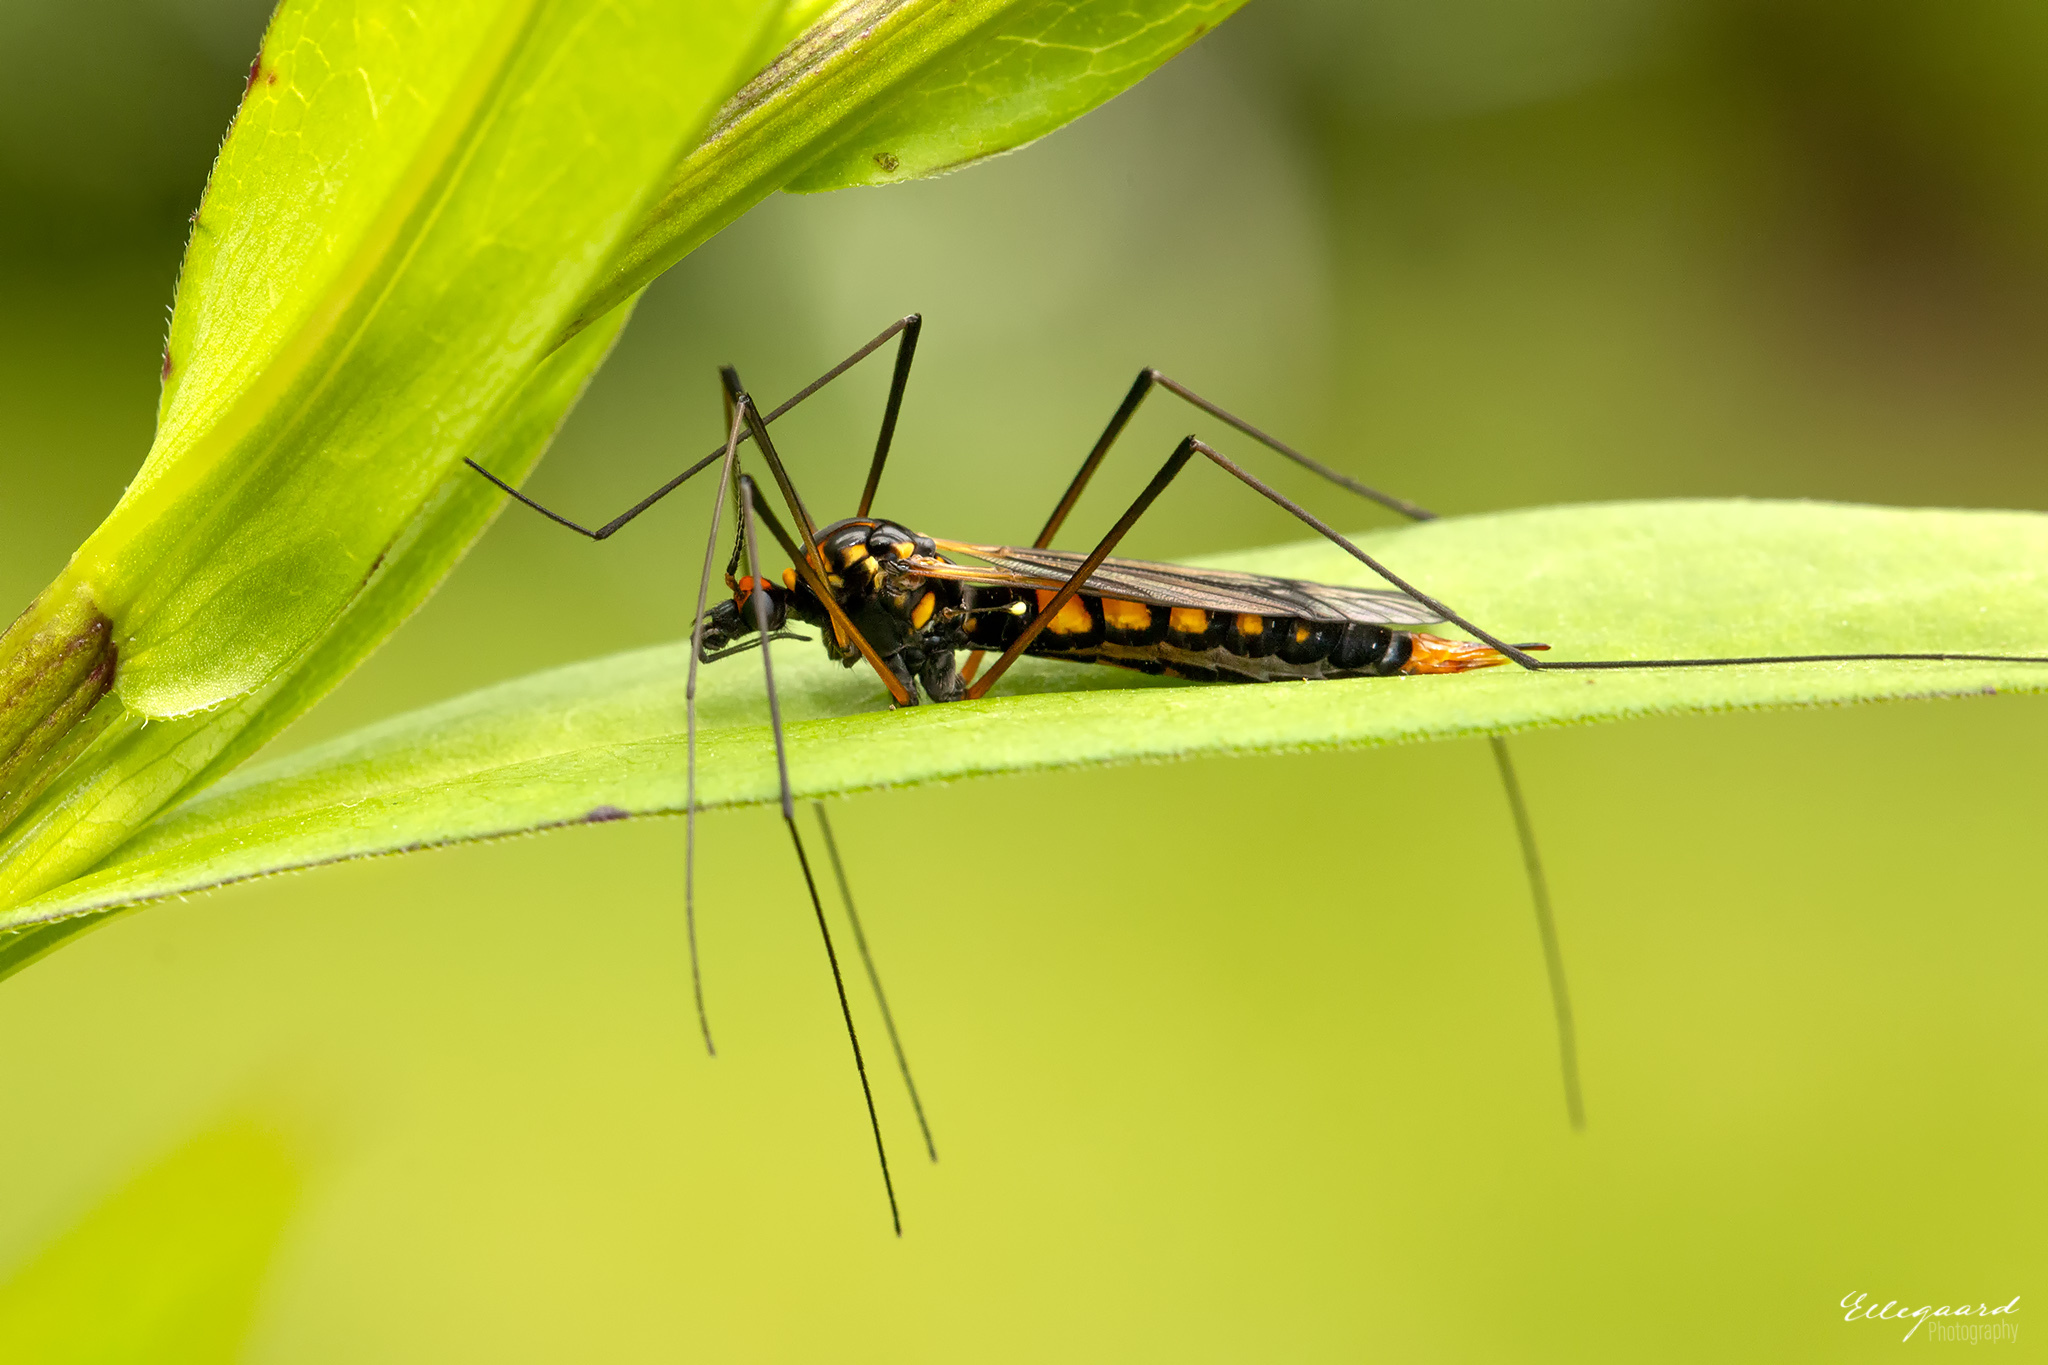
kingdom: Animalia
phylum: Arthropoda
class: Insecta
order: Diptera
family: Tipulidae
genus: Nephrotoma
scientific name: Nephrotoma crocata
